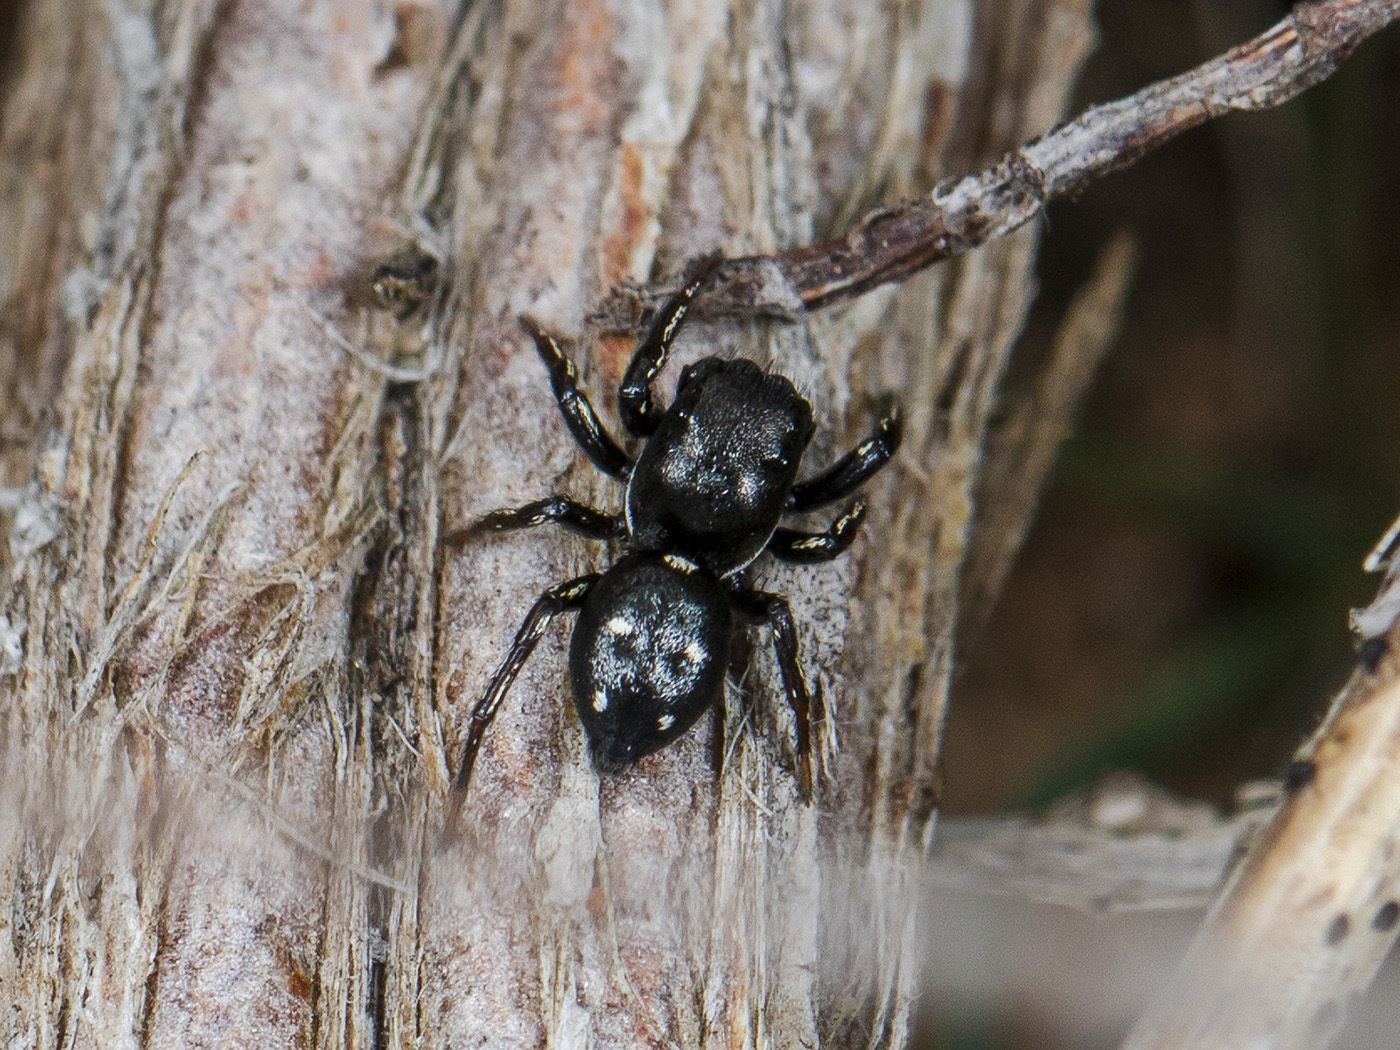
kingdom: Animalia
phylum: Arthropoda
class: Arachnida
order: Araneae
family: Salticidae
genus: Heliophanus
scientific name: Heliophanus chovdensis
